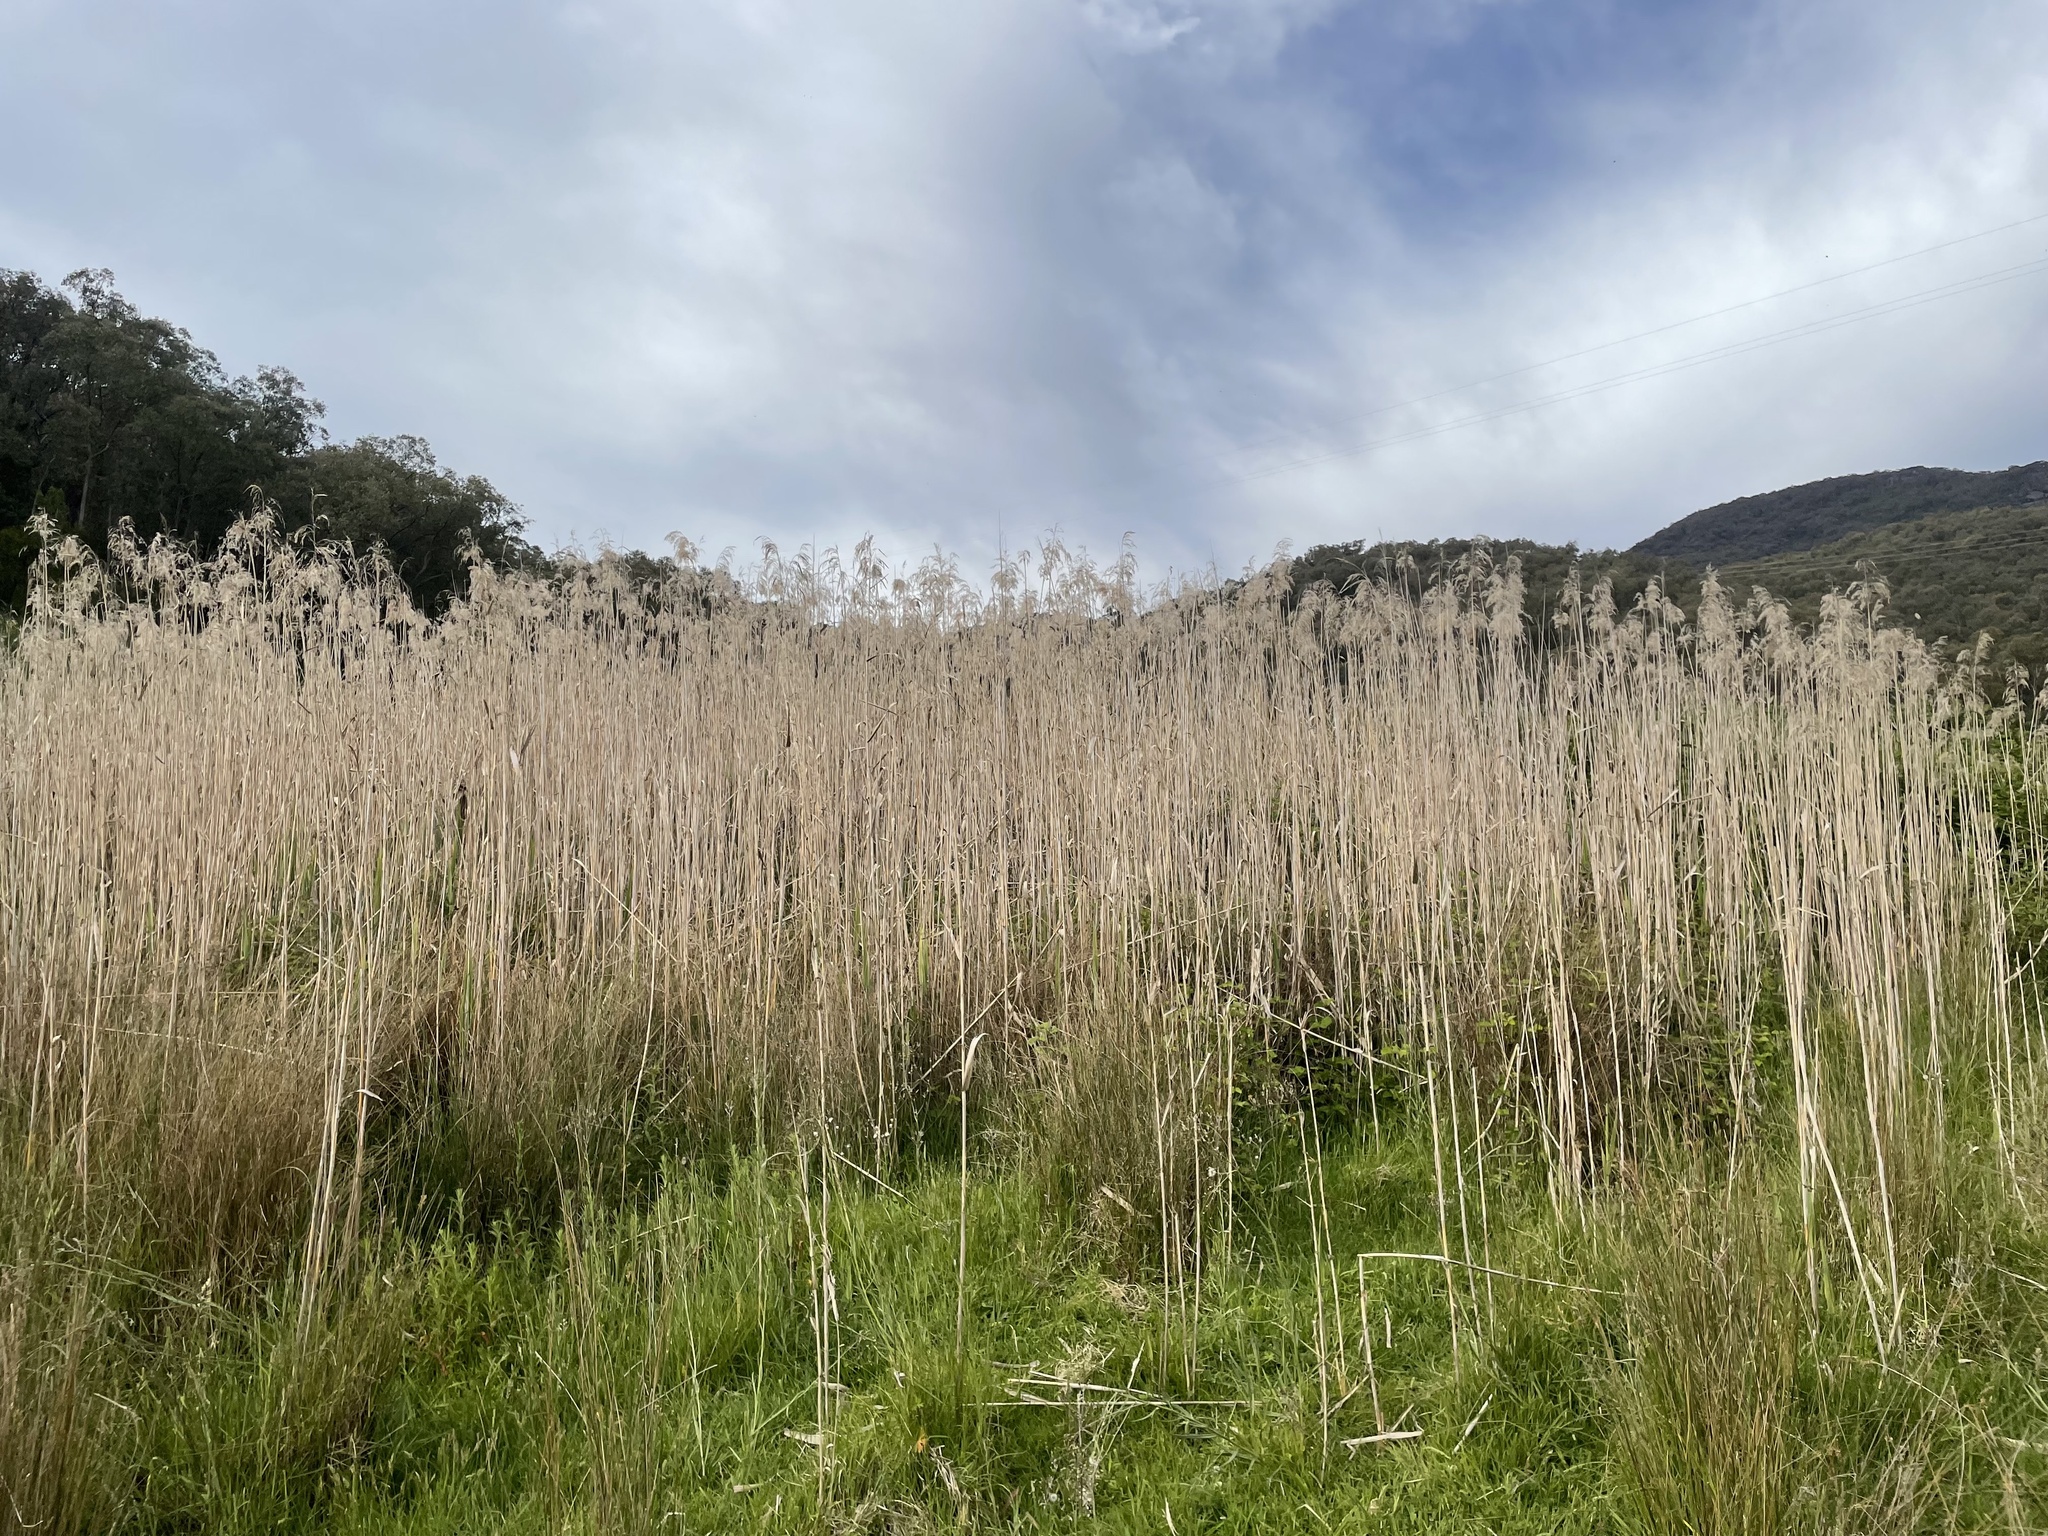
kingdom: Plantae
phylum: Tracheophyta
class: Liliopsida
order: Poales
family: Poaceae
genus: Phragmites
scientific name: Phragmites australis
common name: Common reed
